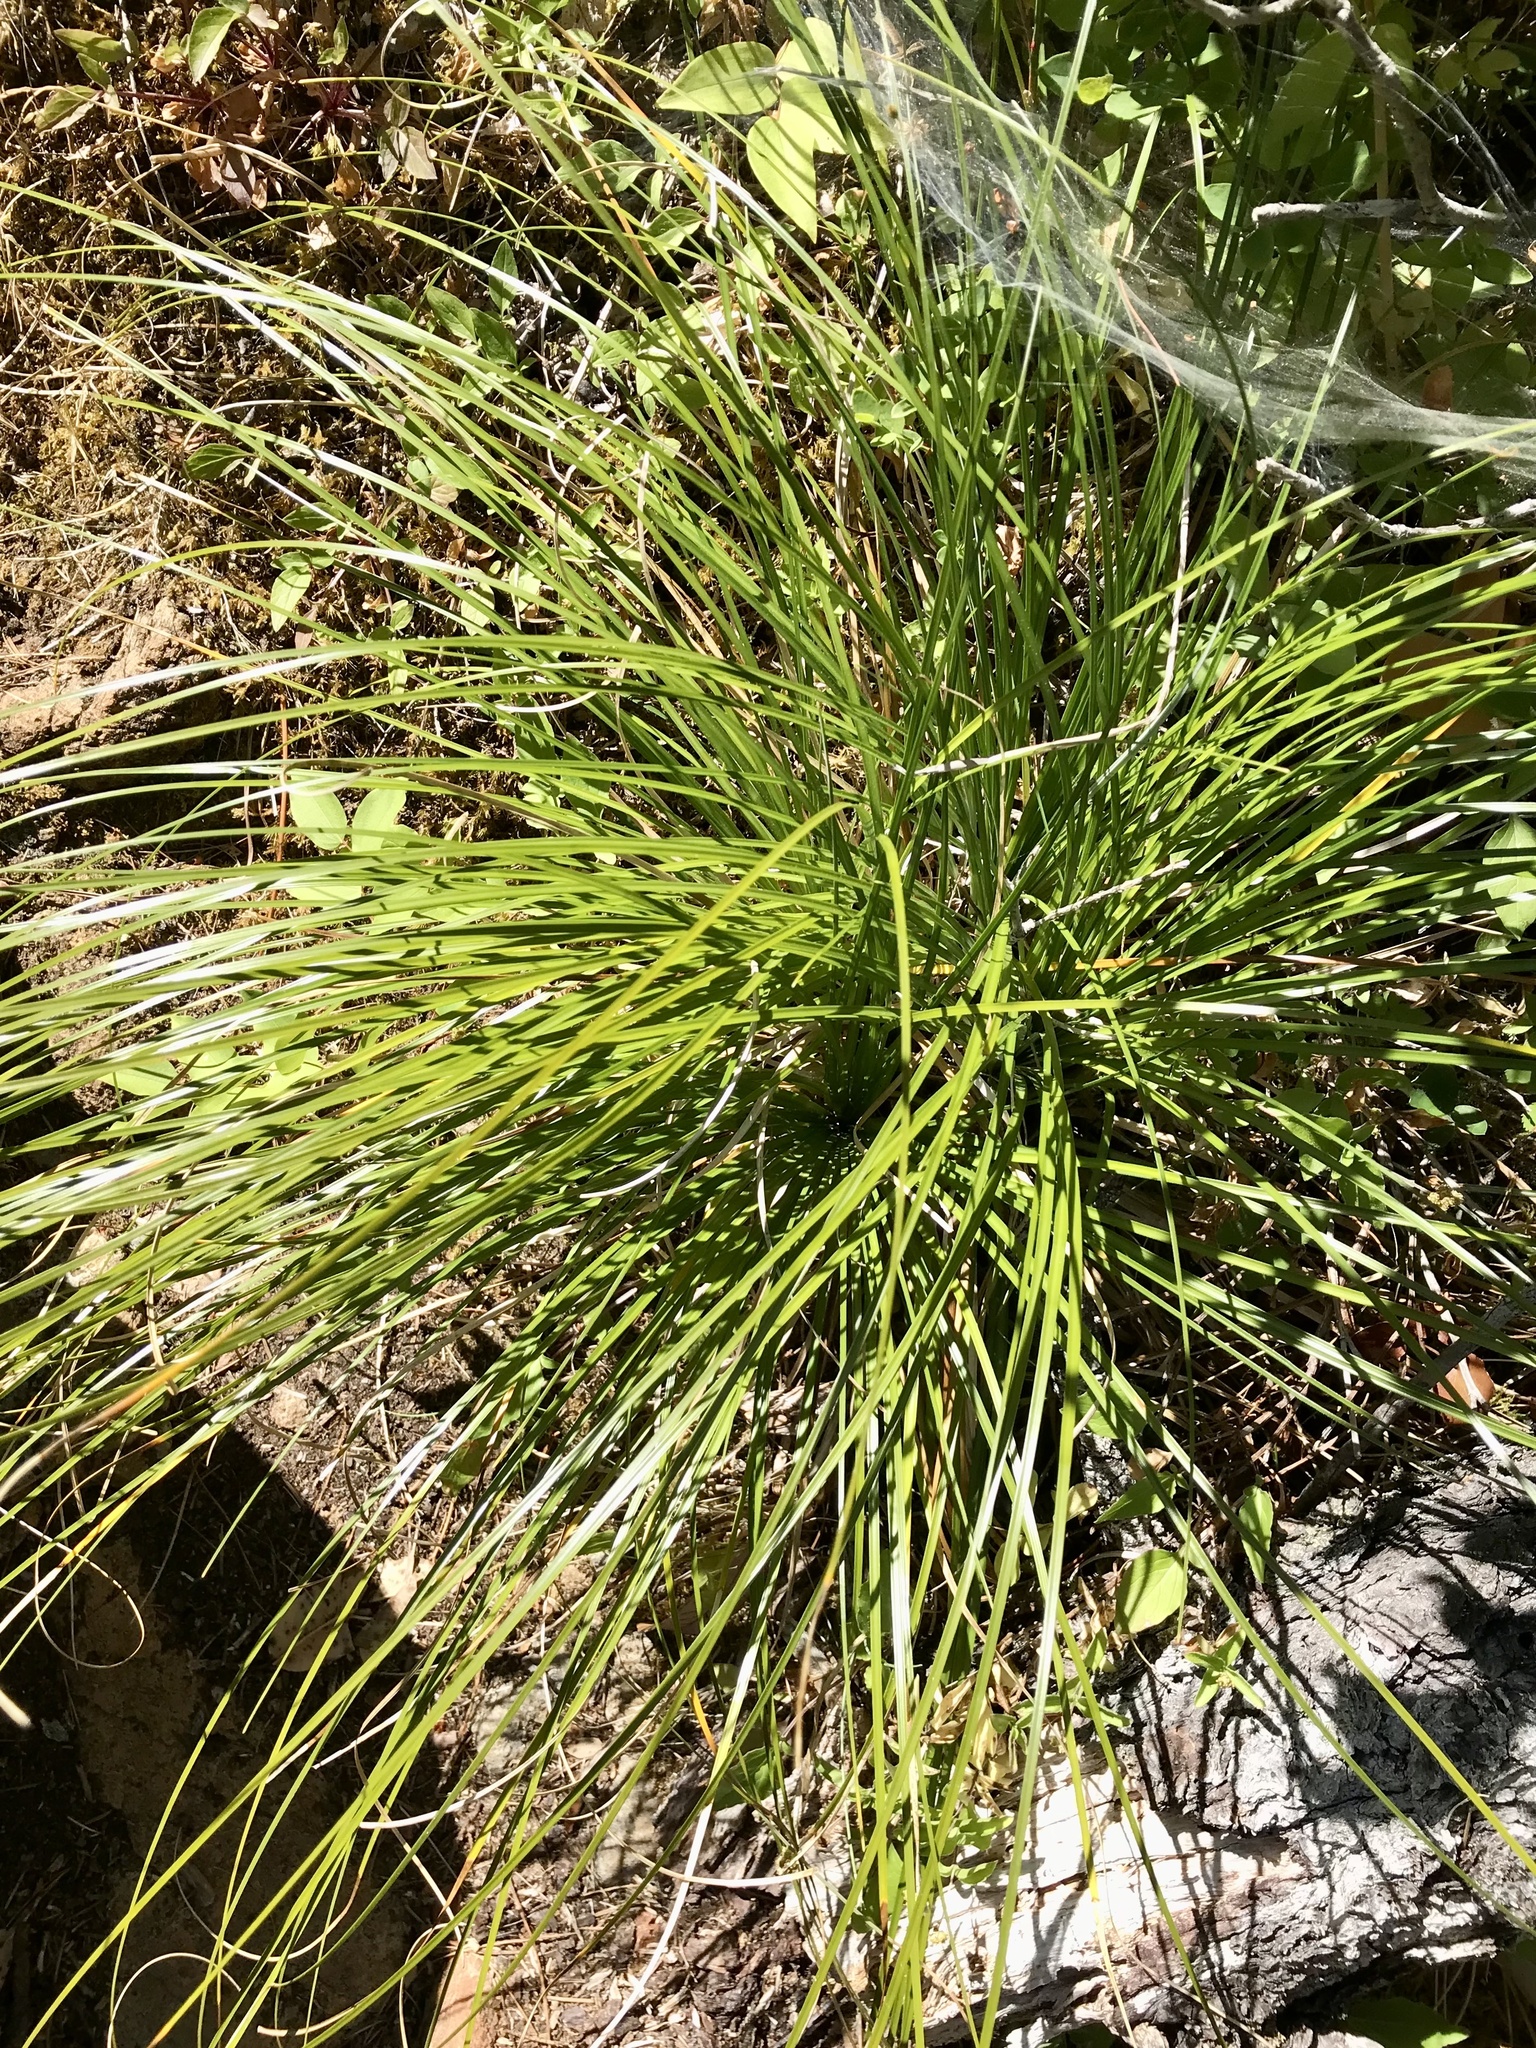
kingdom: Plantae
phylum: Tracheophyta
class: Liliopsida
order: Liliales
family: Melanthiaceae
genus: Xerophyllum
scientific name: Xerophyllum tenax
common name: Bear-grass
